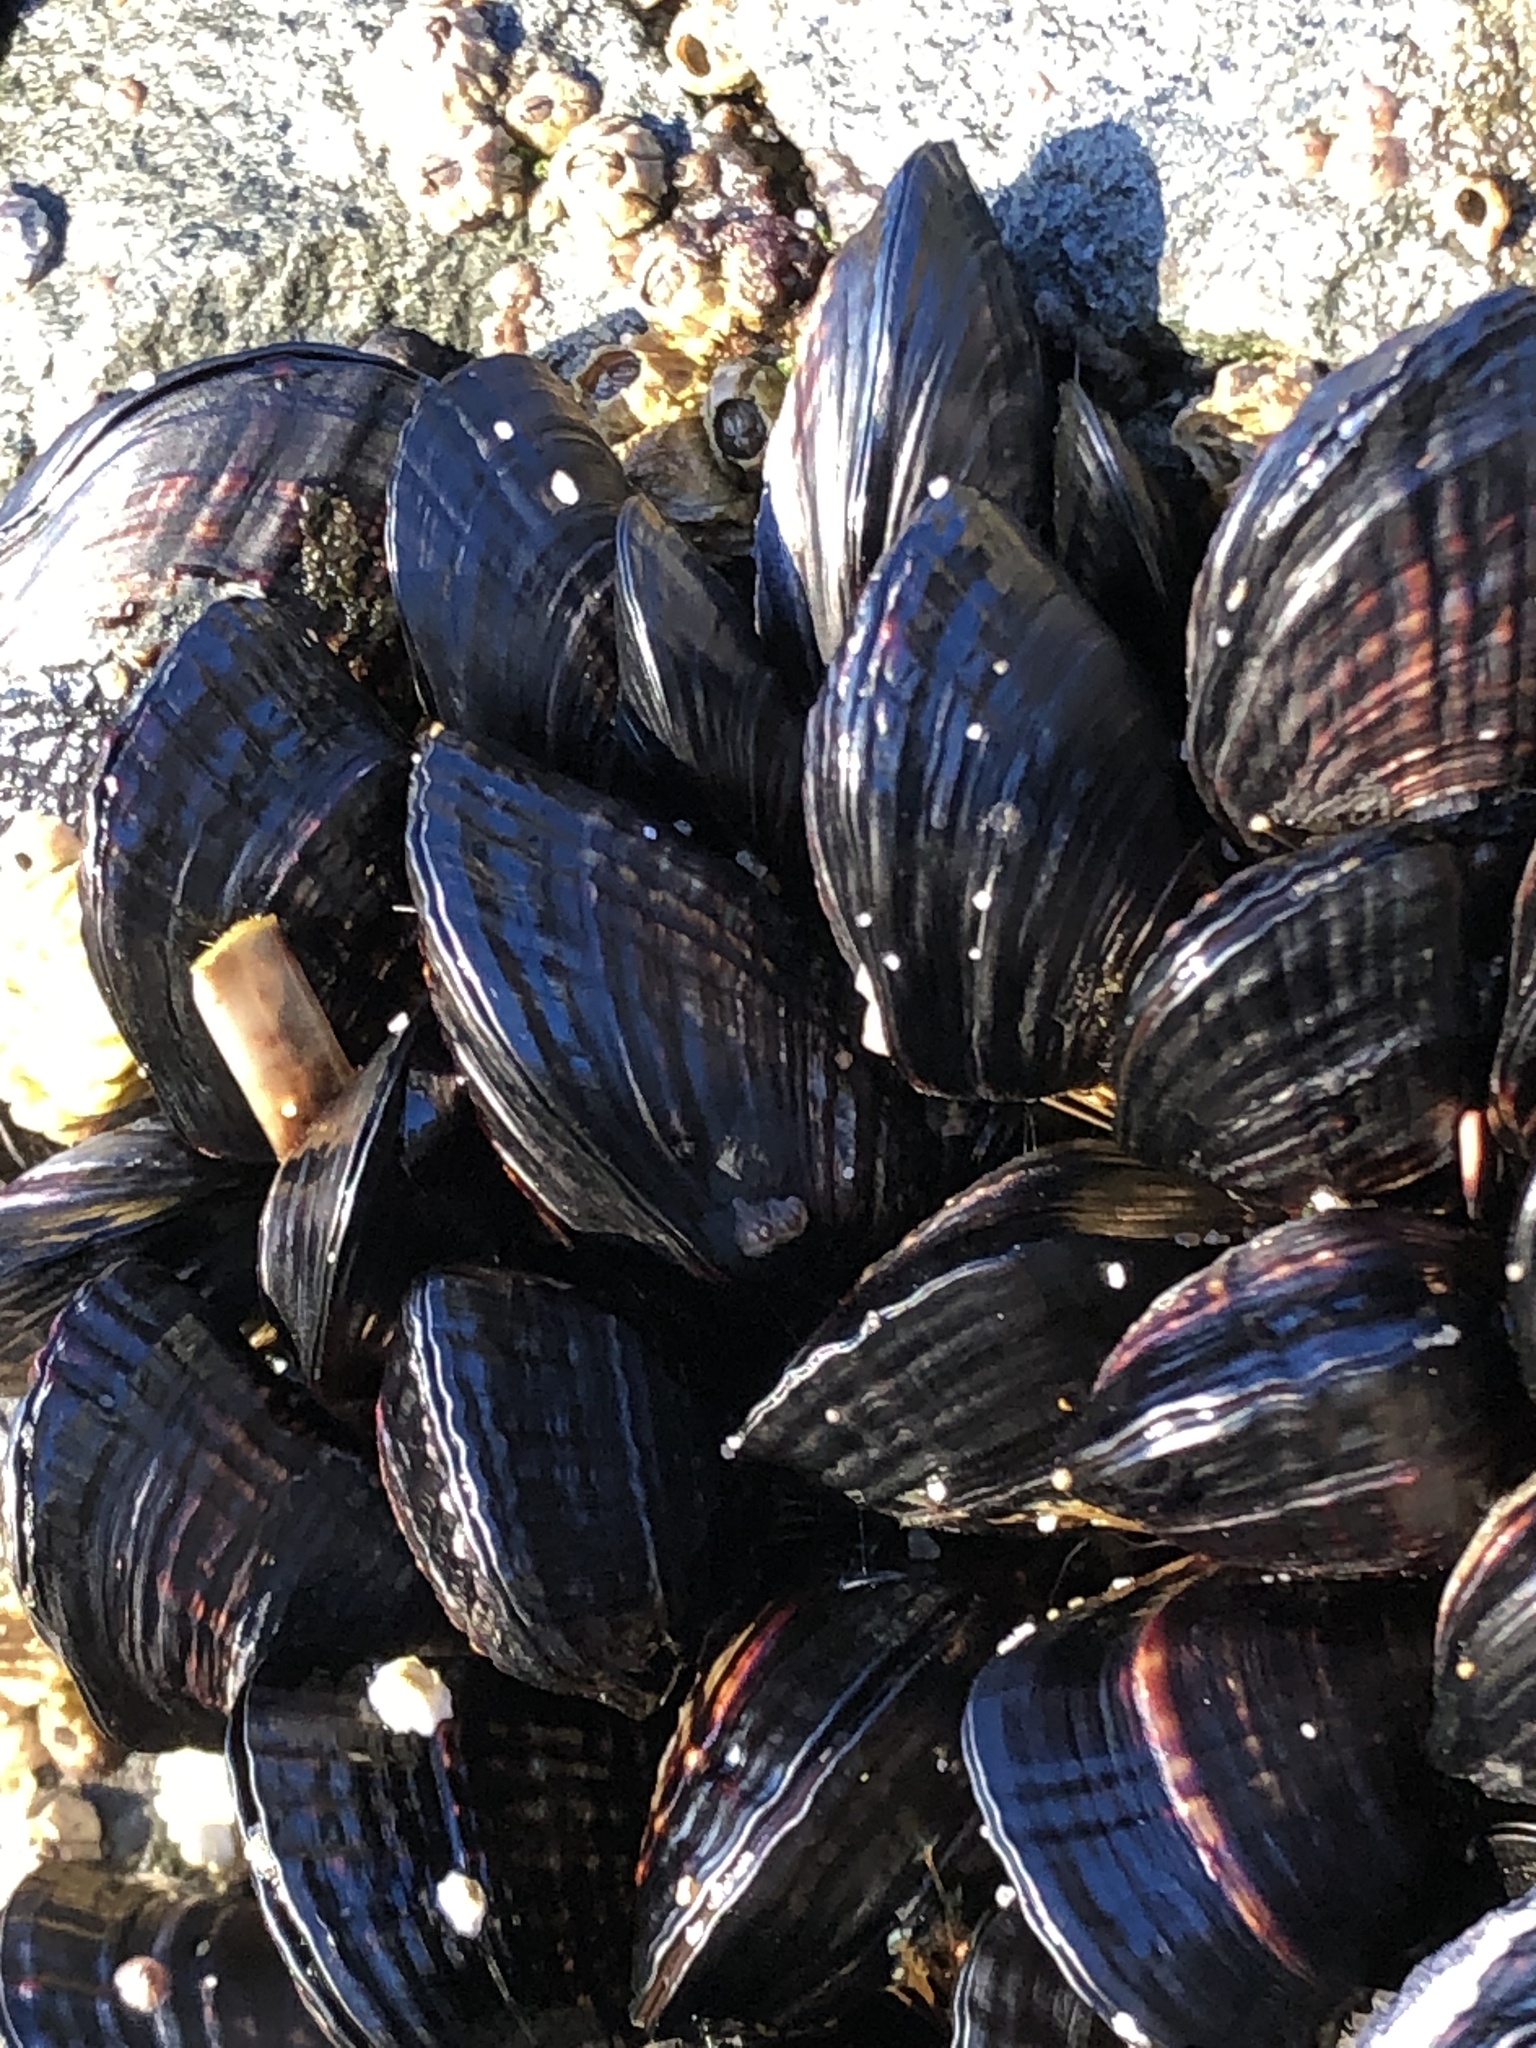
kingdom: Animalia
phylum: Mollusca
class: Bivalvia
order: Mytilida
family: Mytilidae
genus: Mytilus
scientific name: Mytilus californianus
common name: California mussel
